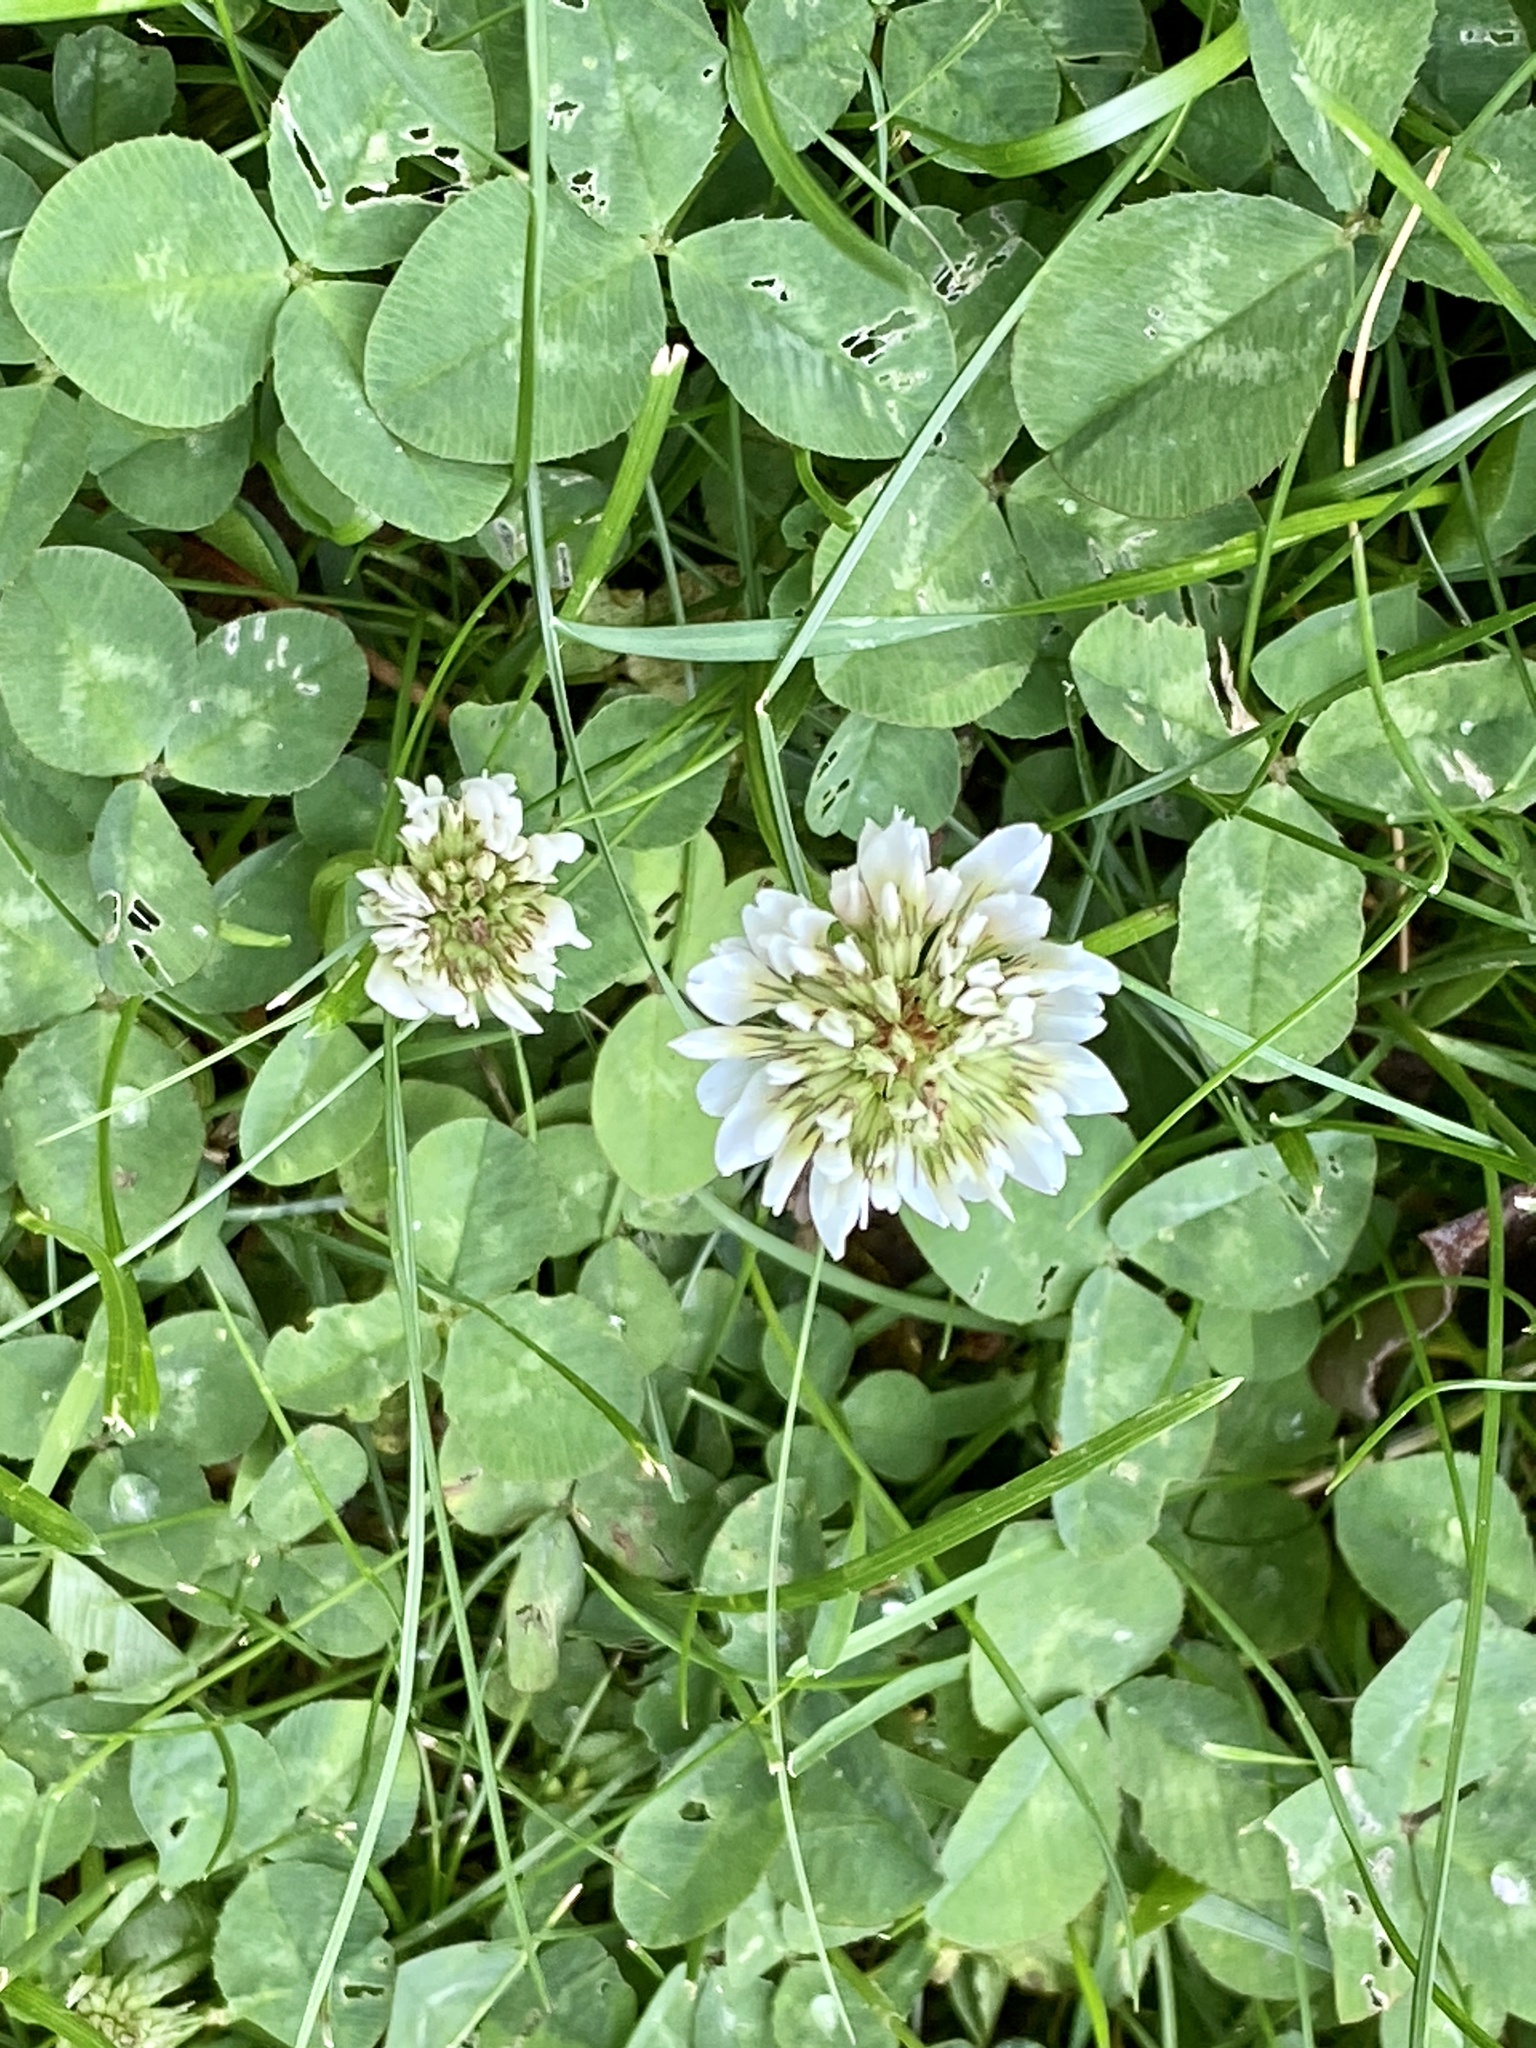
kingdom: Plantae
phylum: Tracheophyta
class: Magnoliopsida
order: Fabales
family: Fabaceae
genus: Trifolium
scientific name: Trifolium repens
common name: White clover
